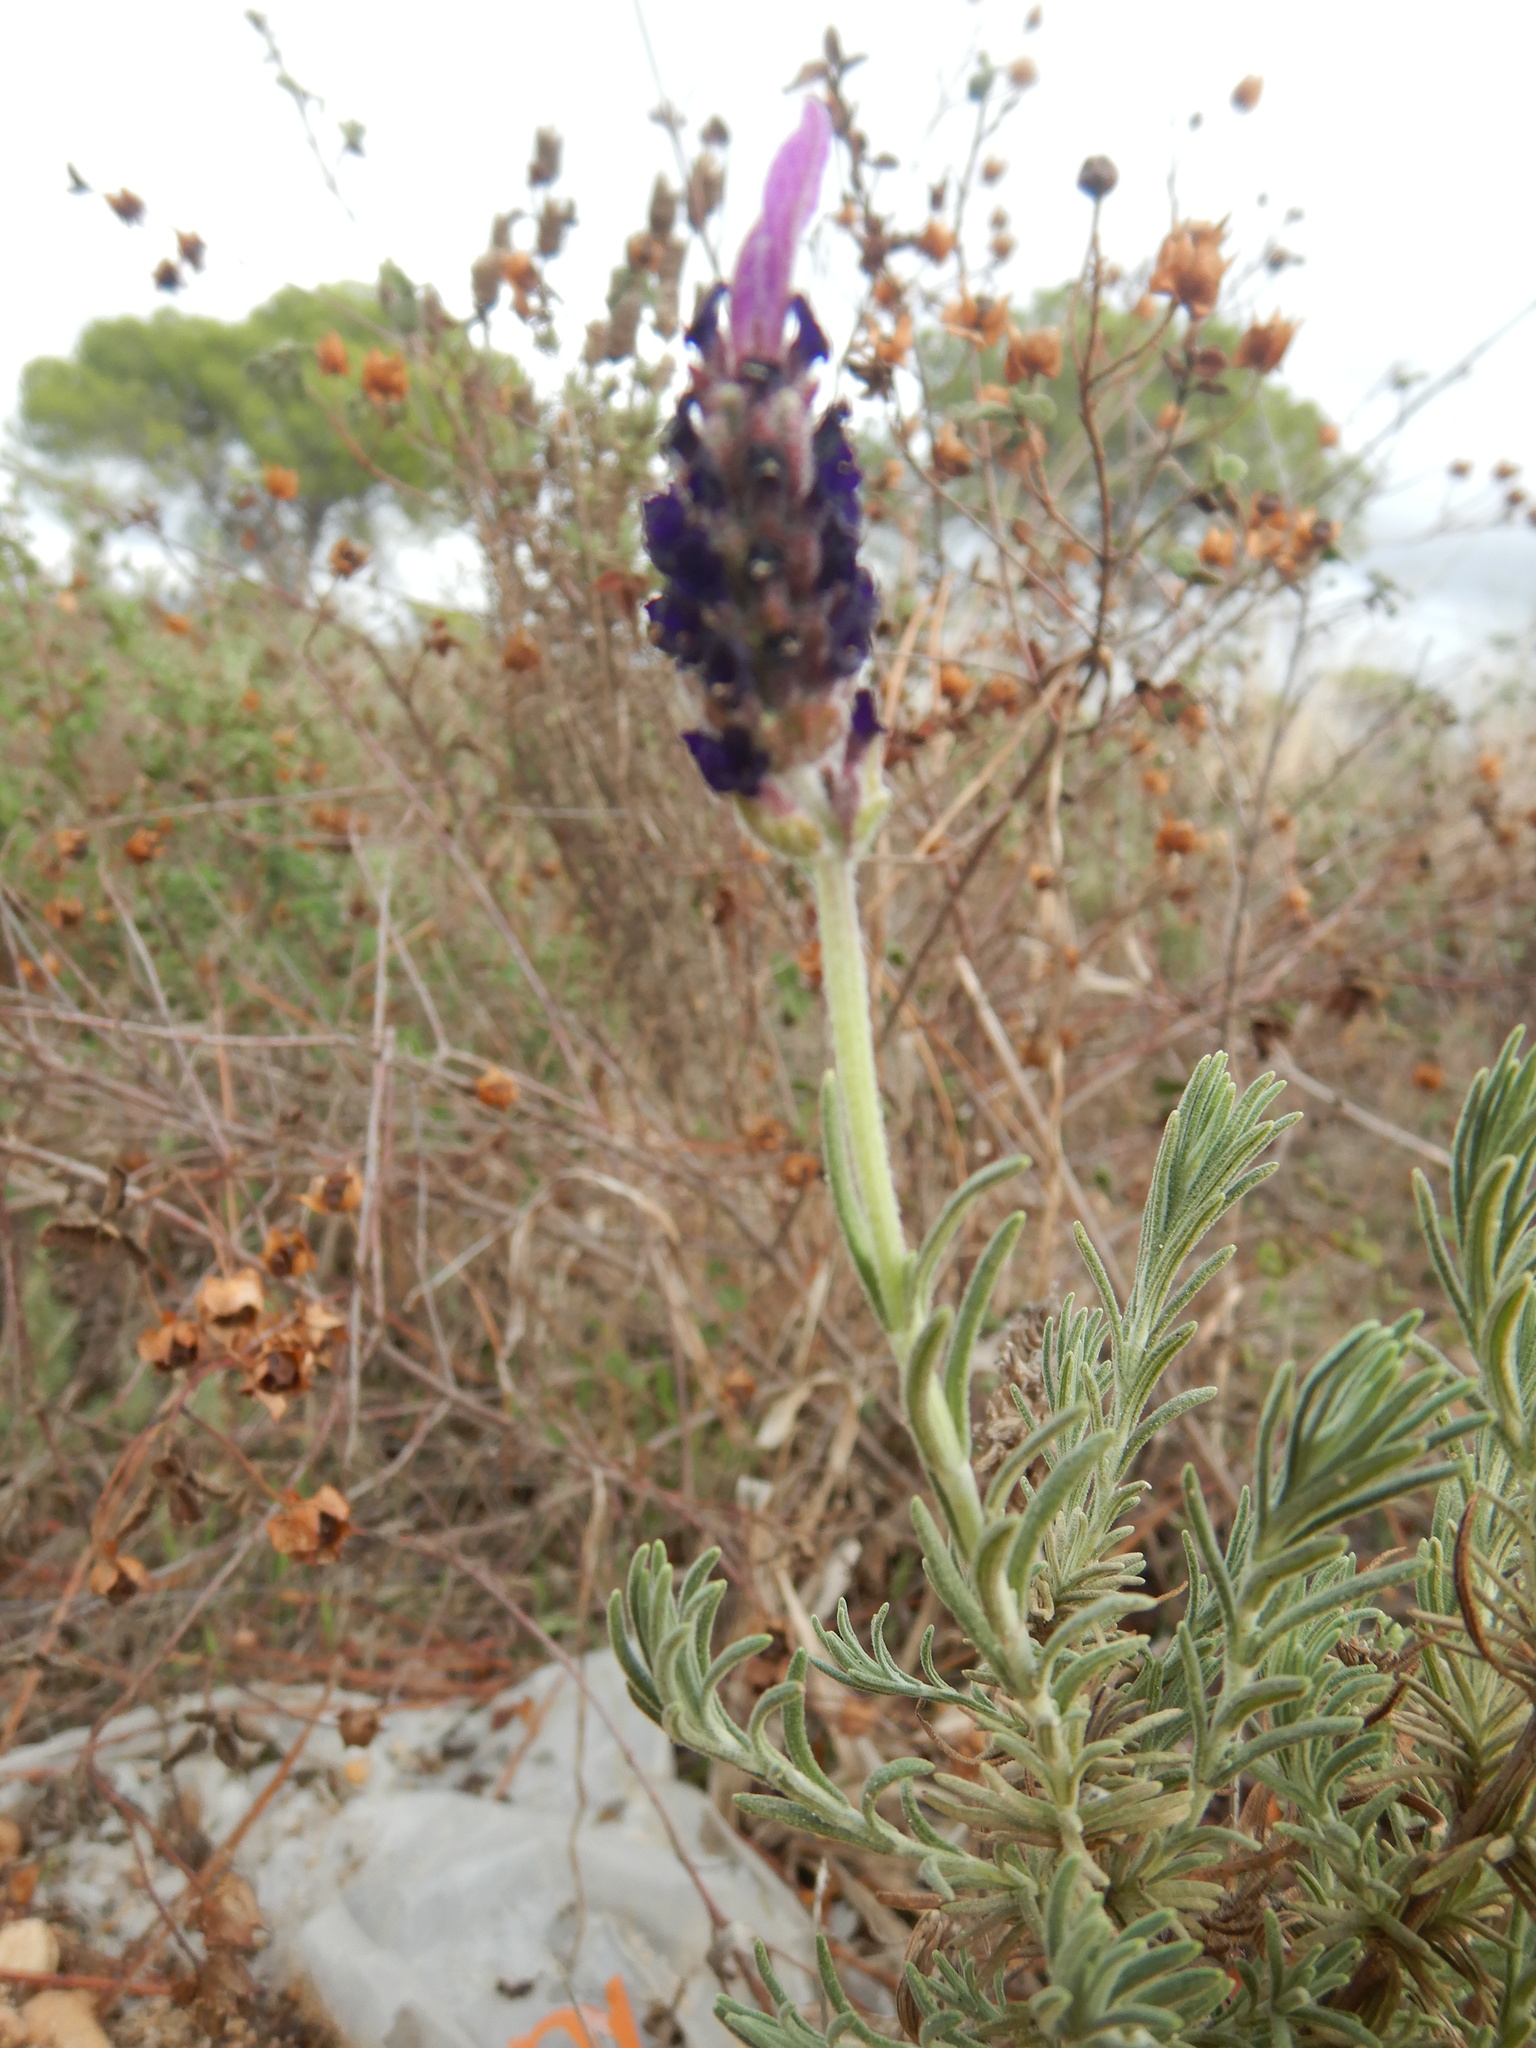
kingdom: Plantae
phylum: Tracheophyta
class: Magnoliopsida
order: Lamiales
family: Lamiaceae
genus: Lavandula
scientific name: Lavandula pedunculata
